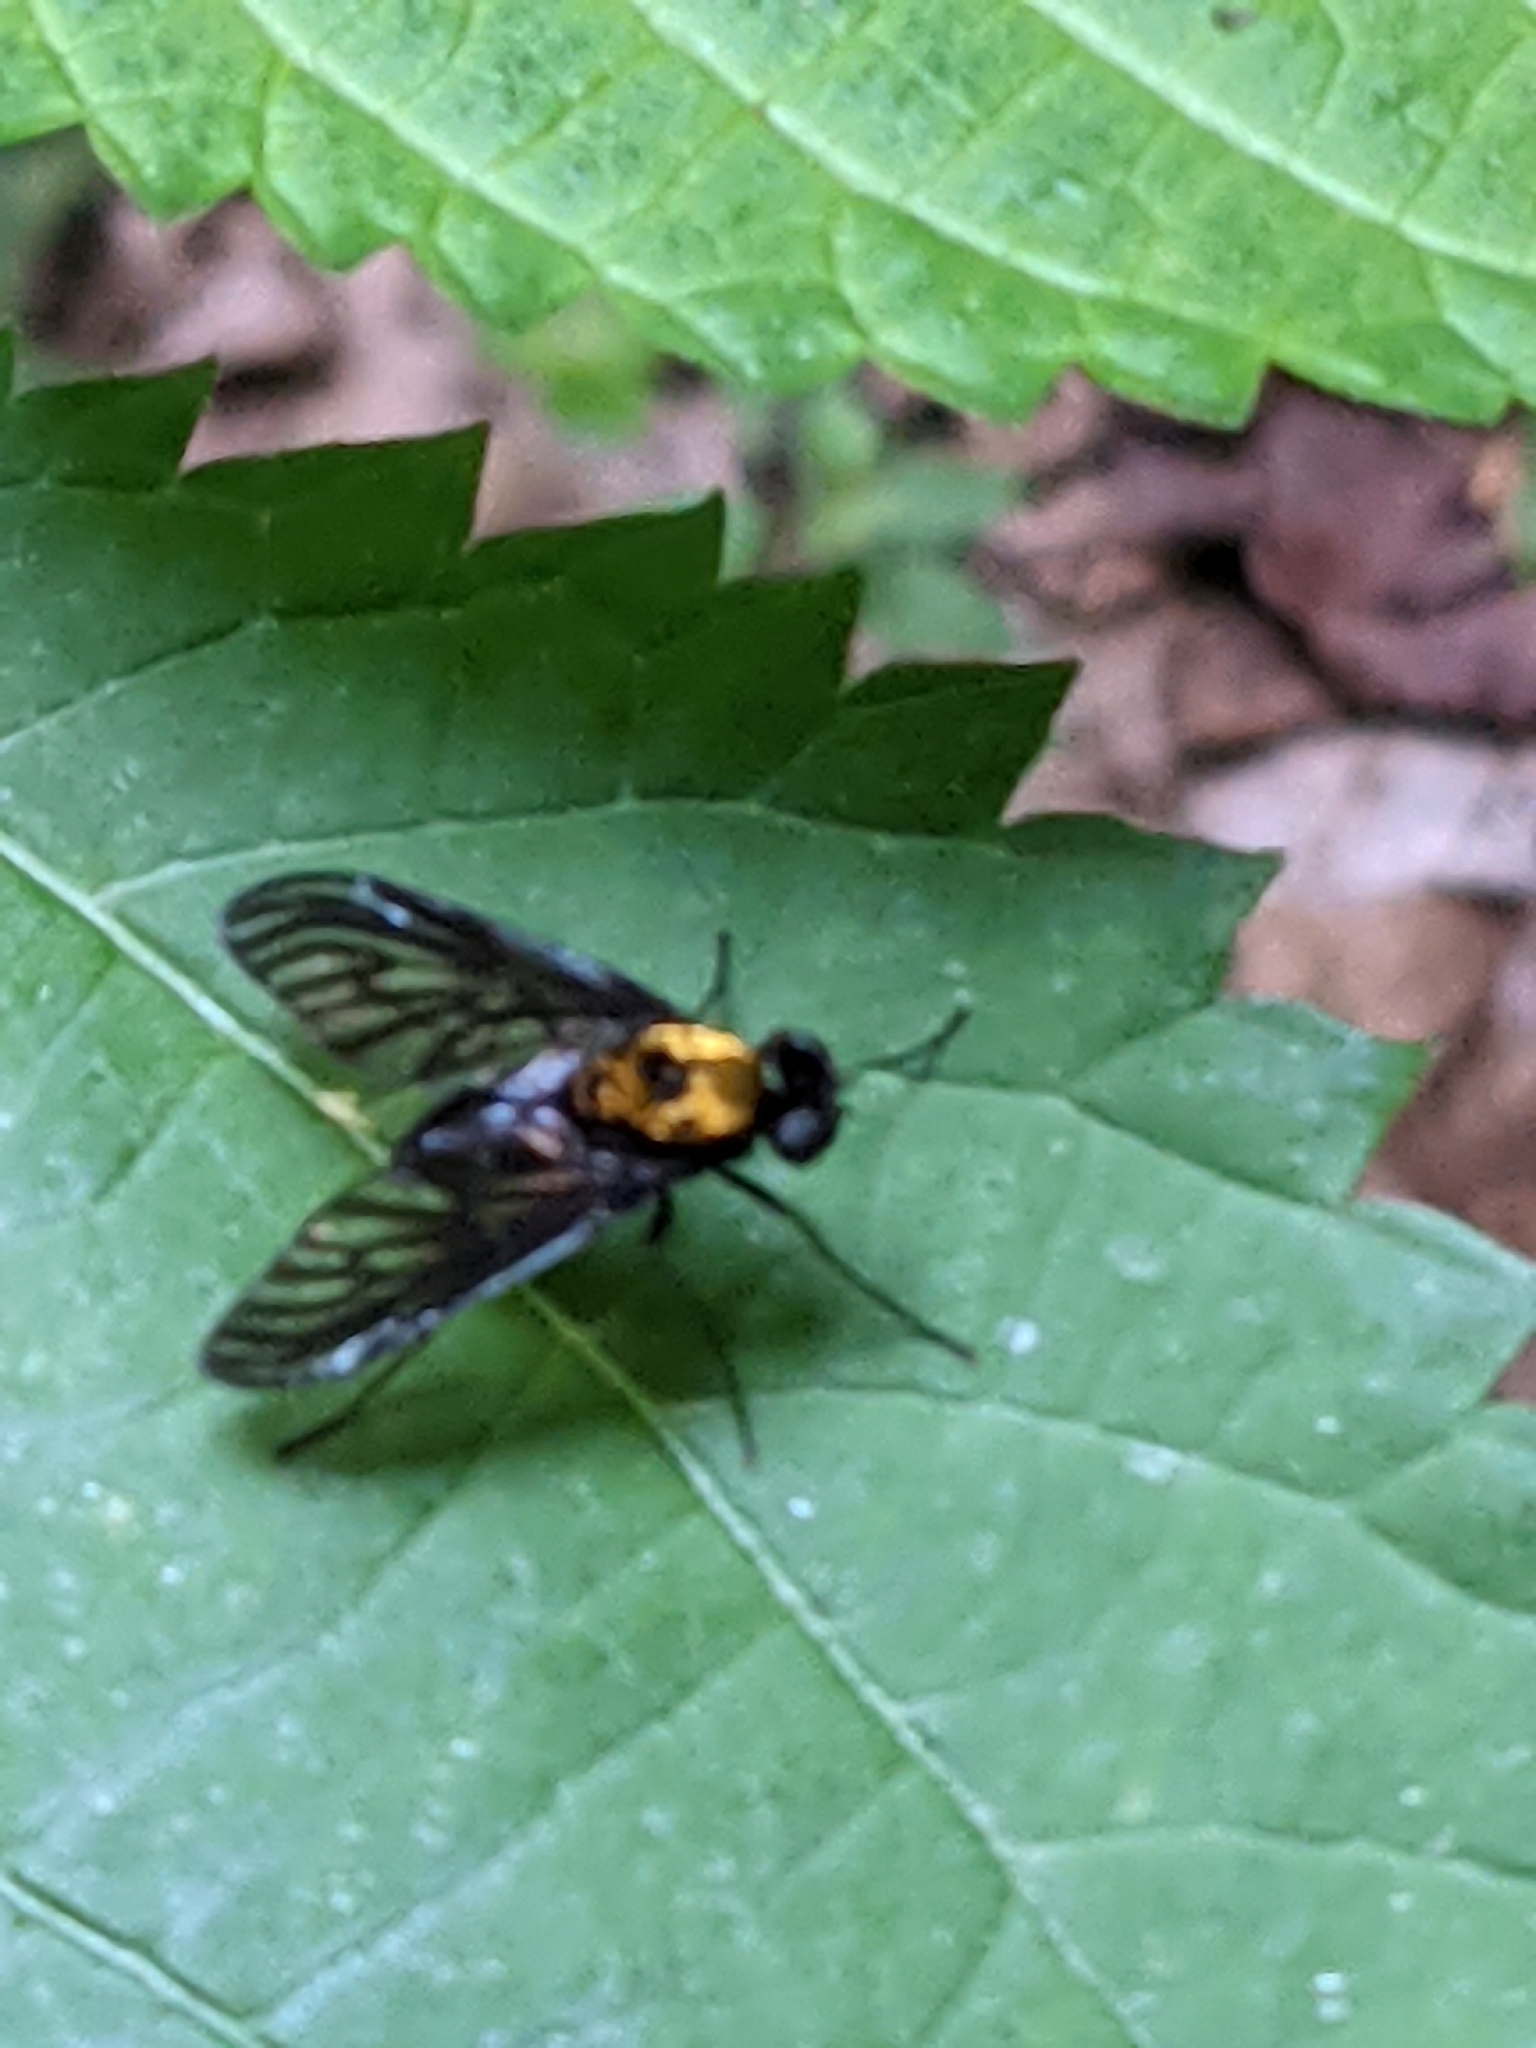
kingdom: Animalia
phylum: Arthropoda
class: Insecta
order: Diptera
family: Rhagionidae
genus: Chrysopilus
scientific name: Chrysopilus thoracicus
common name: Golden-backed snipe fly
